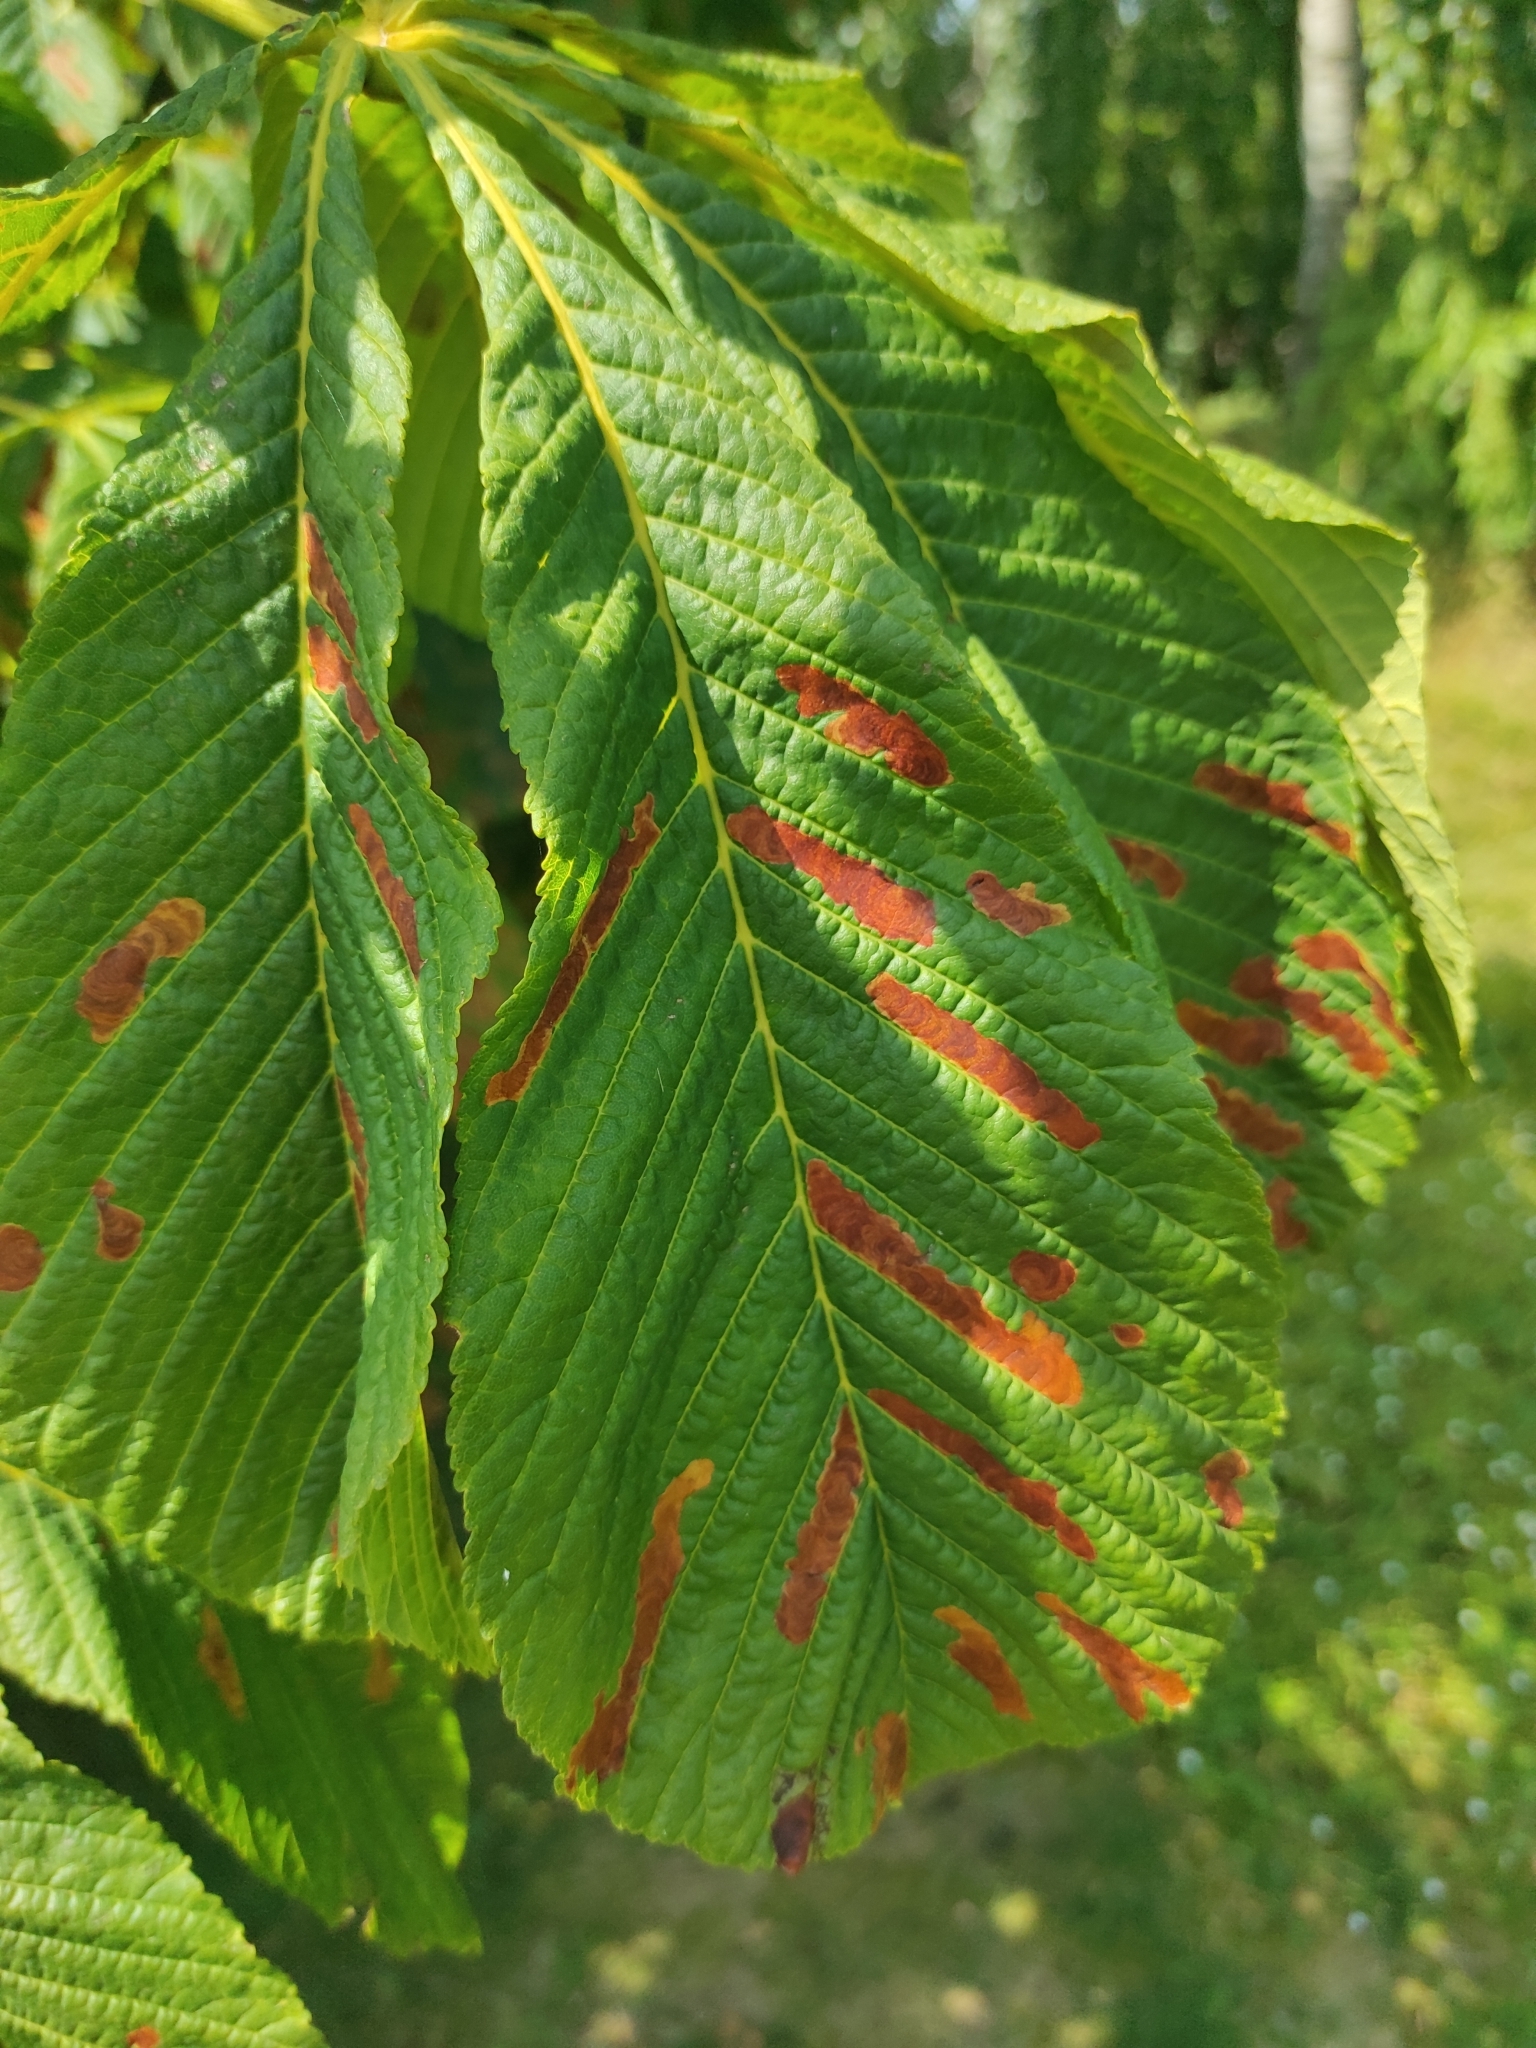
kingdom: Animalia
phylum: Arthropoda
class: Insecta
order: Lepidoptera
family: Gracillariidae
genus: Cameraria
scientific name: Cameraria ohridella
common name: Horse-chestnut leaf-miner
